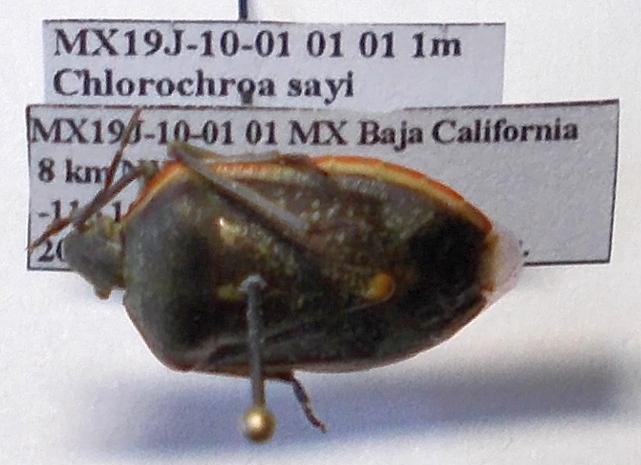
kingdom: Animalia
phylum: Arthropoda
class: Insecta
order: Hemiptera
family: Pentatomidae
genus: Chlorochroa
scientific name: Chlorochroa sayi
